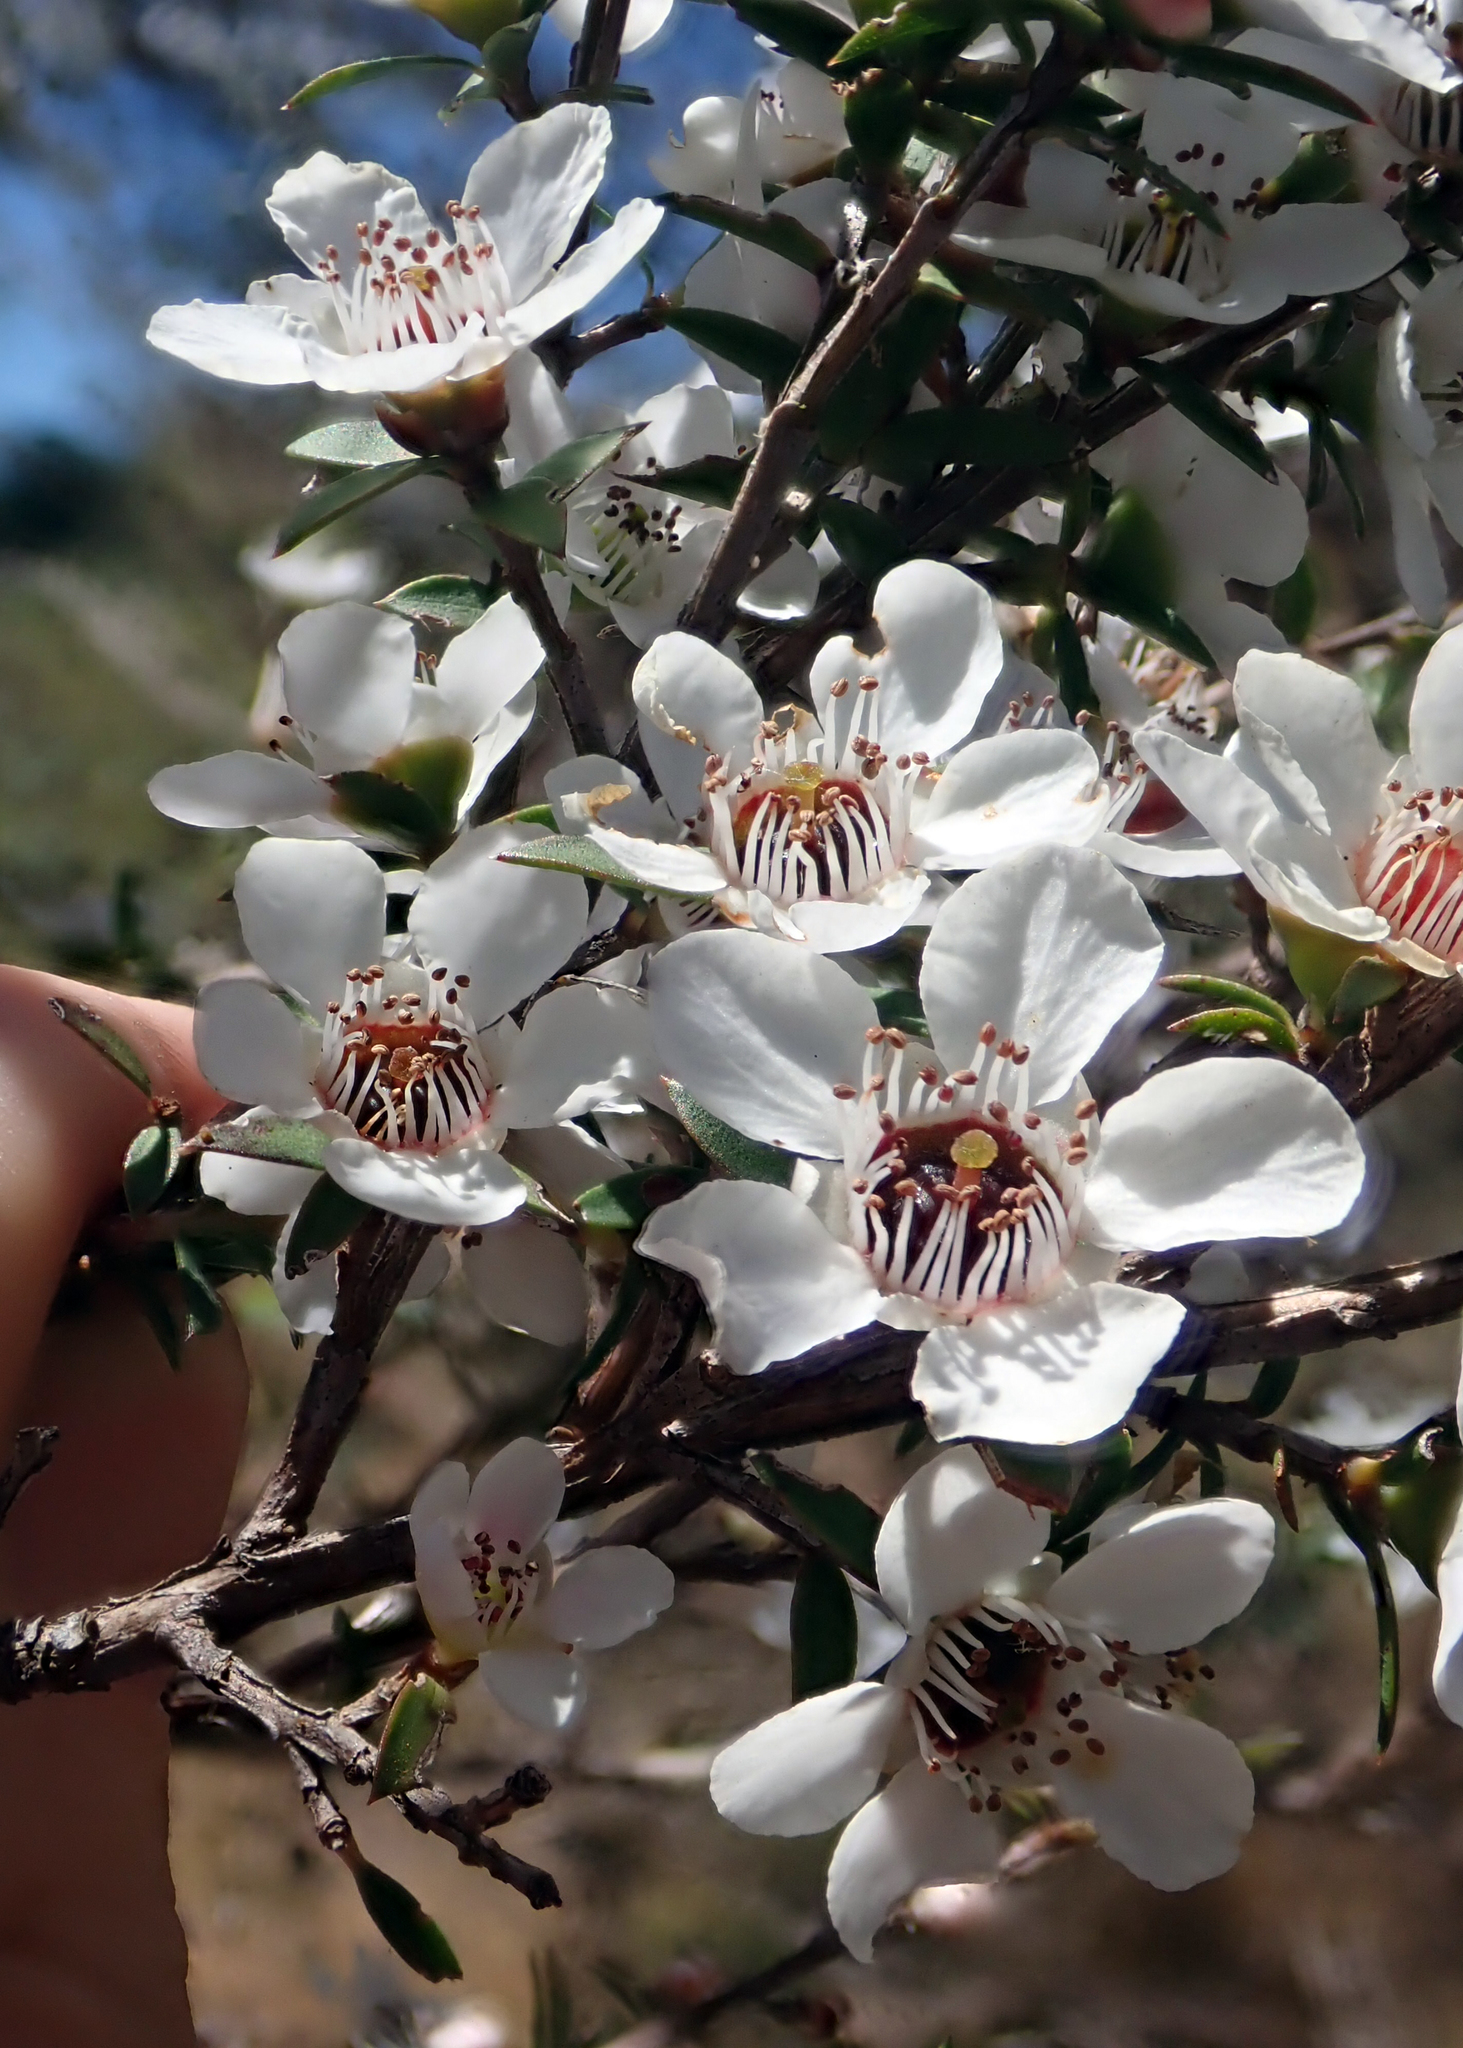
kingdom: Plantae
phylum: Tracheophyta
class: Magnoliopsida
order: Myrtales
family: Myrtaceae
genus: Leptospermum
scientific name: Leptospermum scoparium
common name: Broom tea-tree
